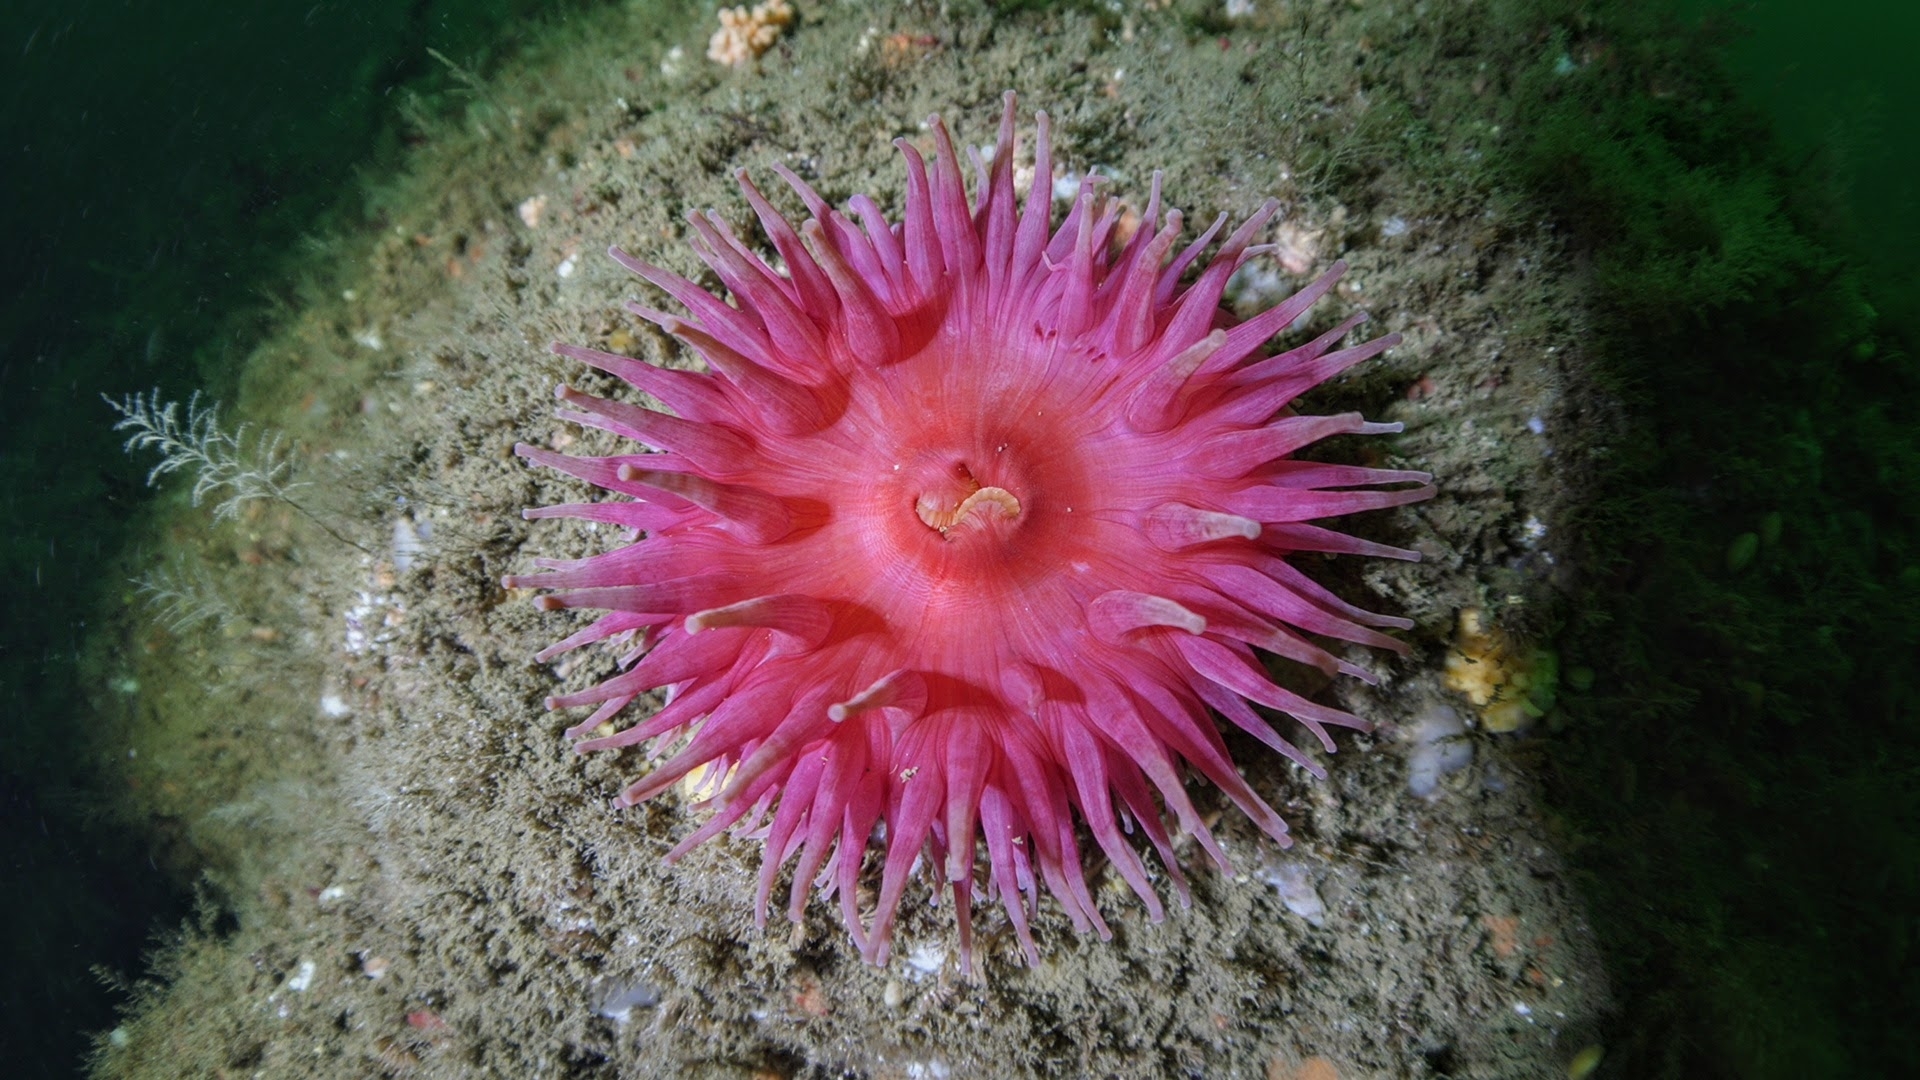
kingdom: Animalia
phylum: Cnidaria
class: Anthozoa
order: Actiniaria
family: Actiniidae
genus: Urticina
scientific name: Urticina crassicornis
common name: Mottled anemone
